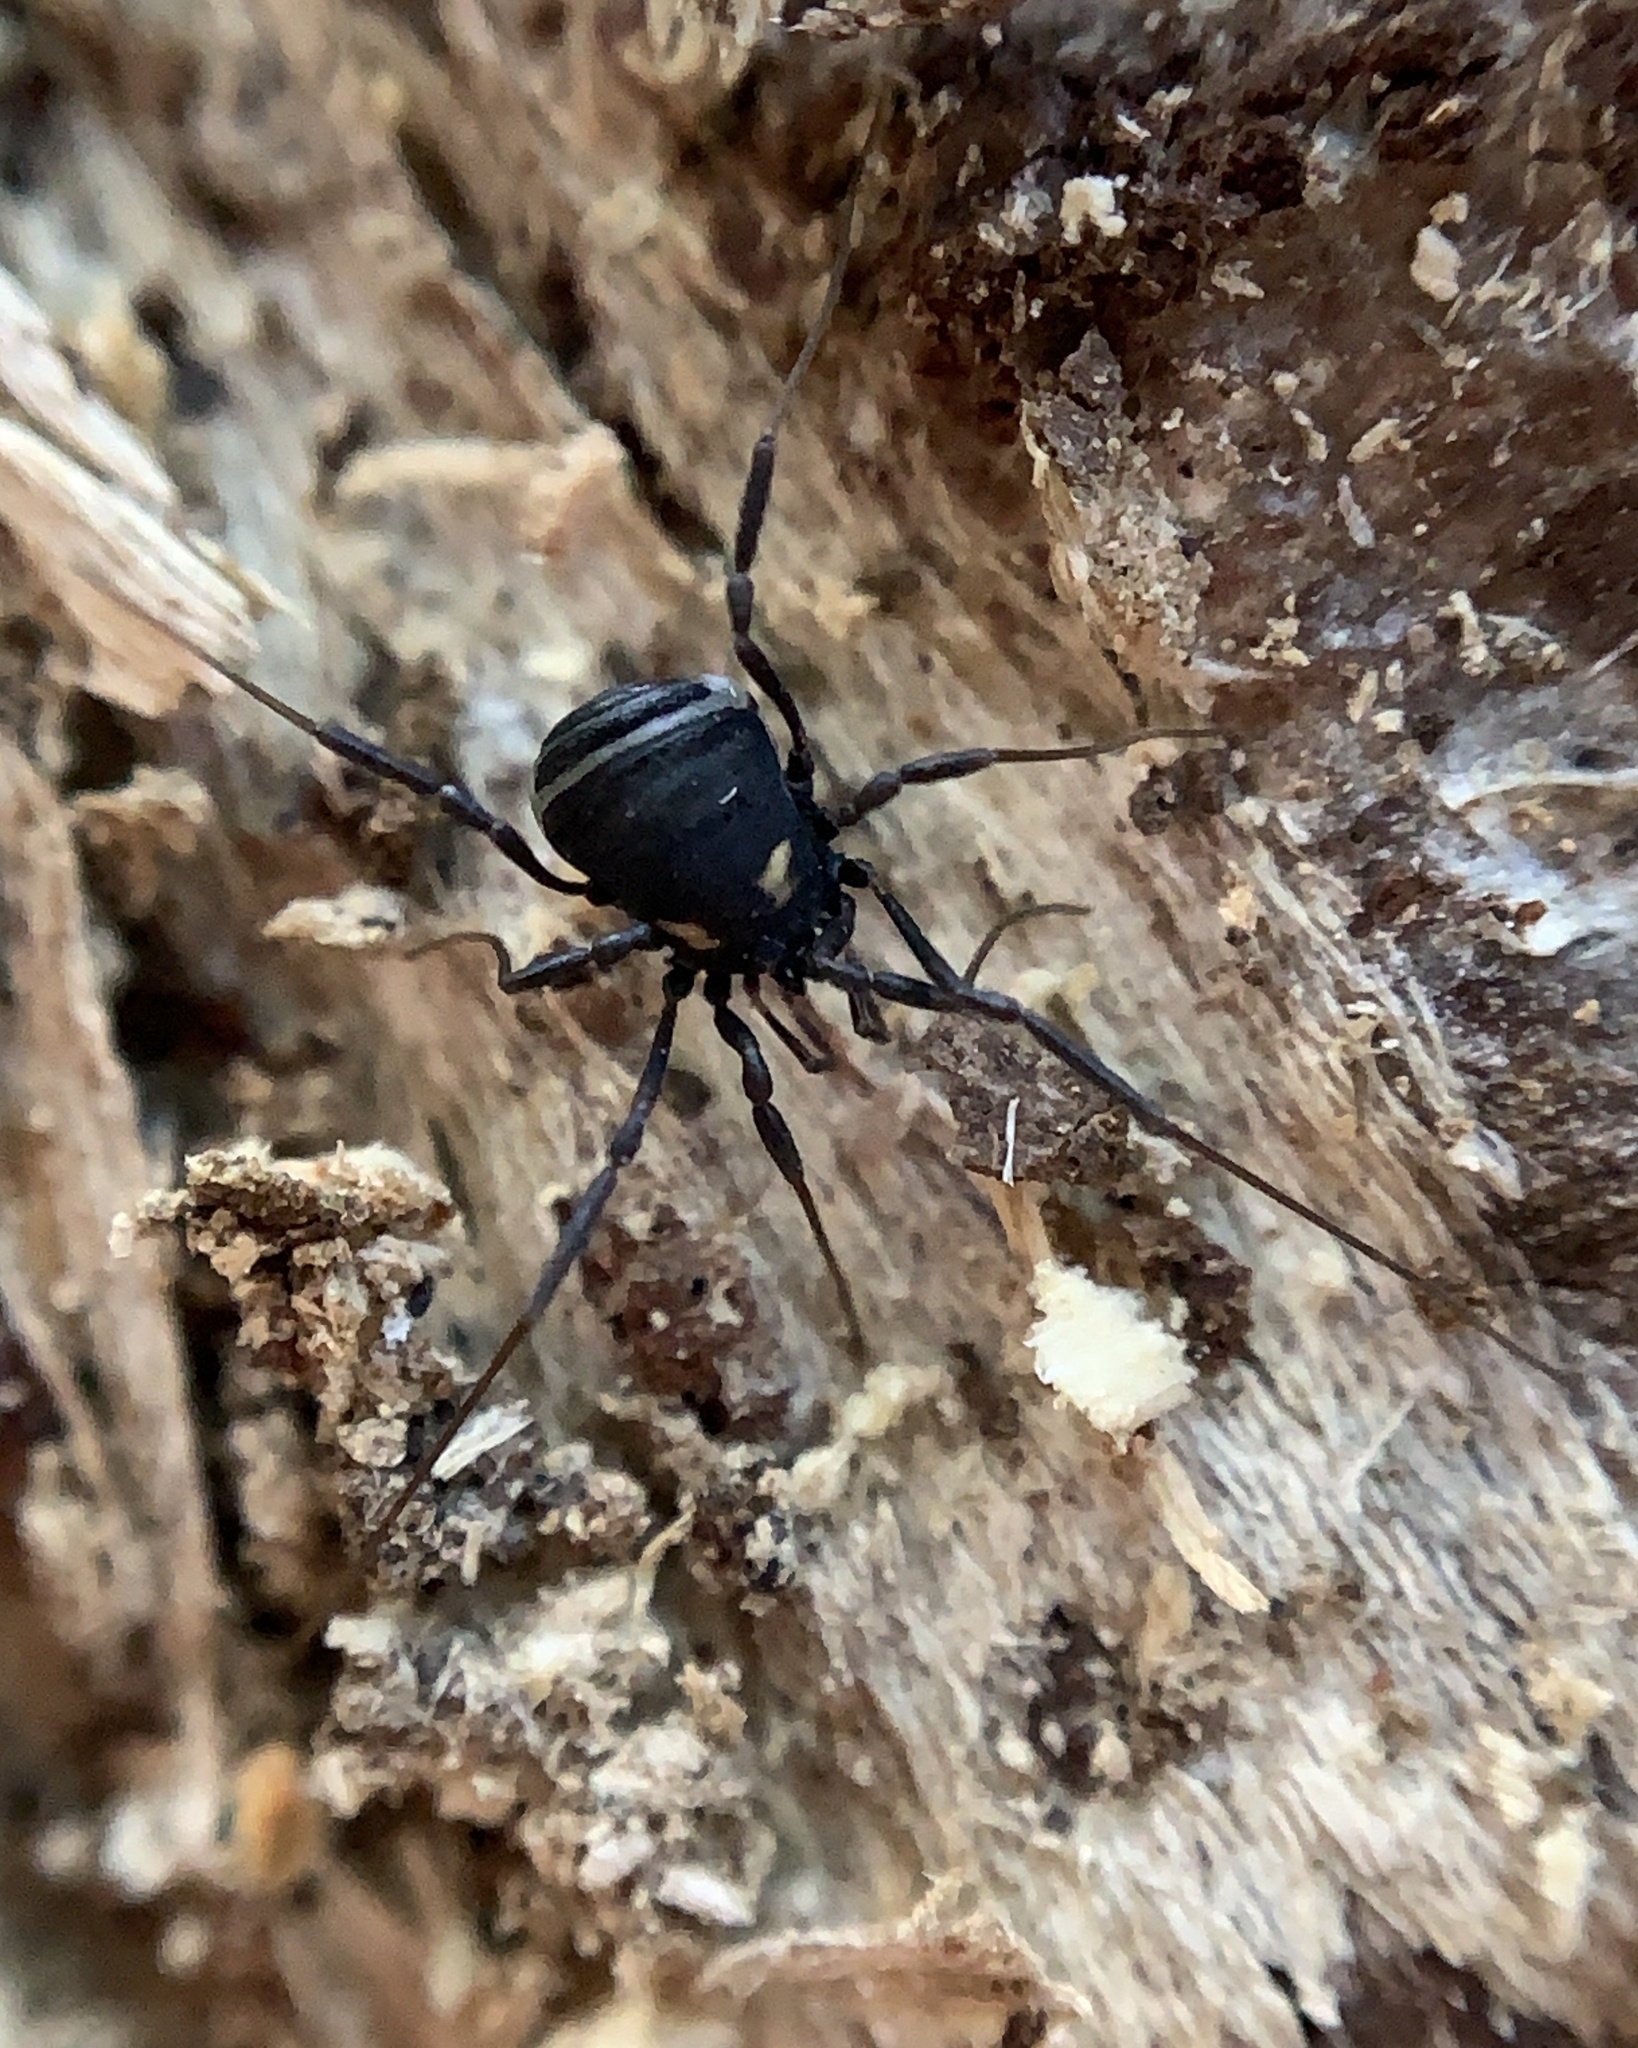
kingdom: Animalia
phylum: Arthropoda
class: Arachnida
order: Opiliones
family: Nemastomatidae
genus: Nemastoma
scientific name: Nemastoma bimaculatum
